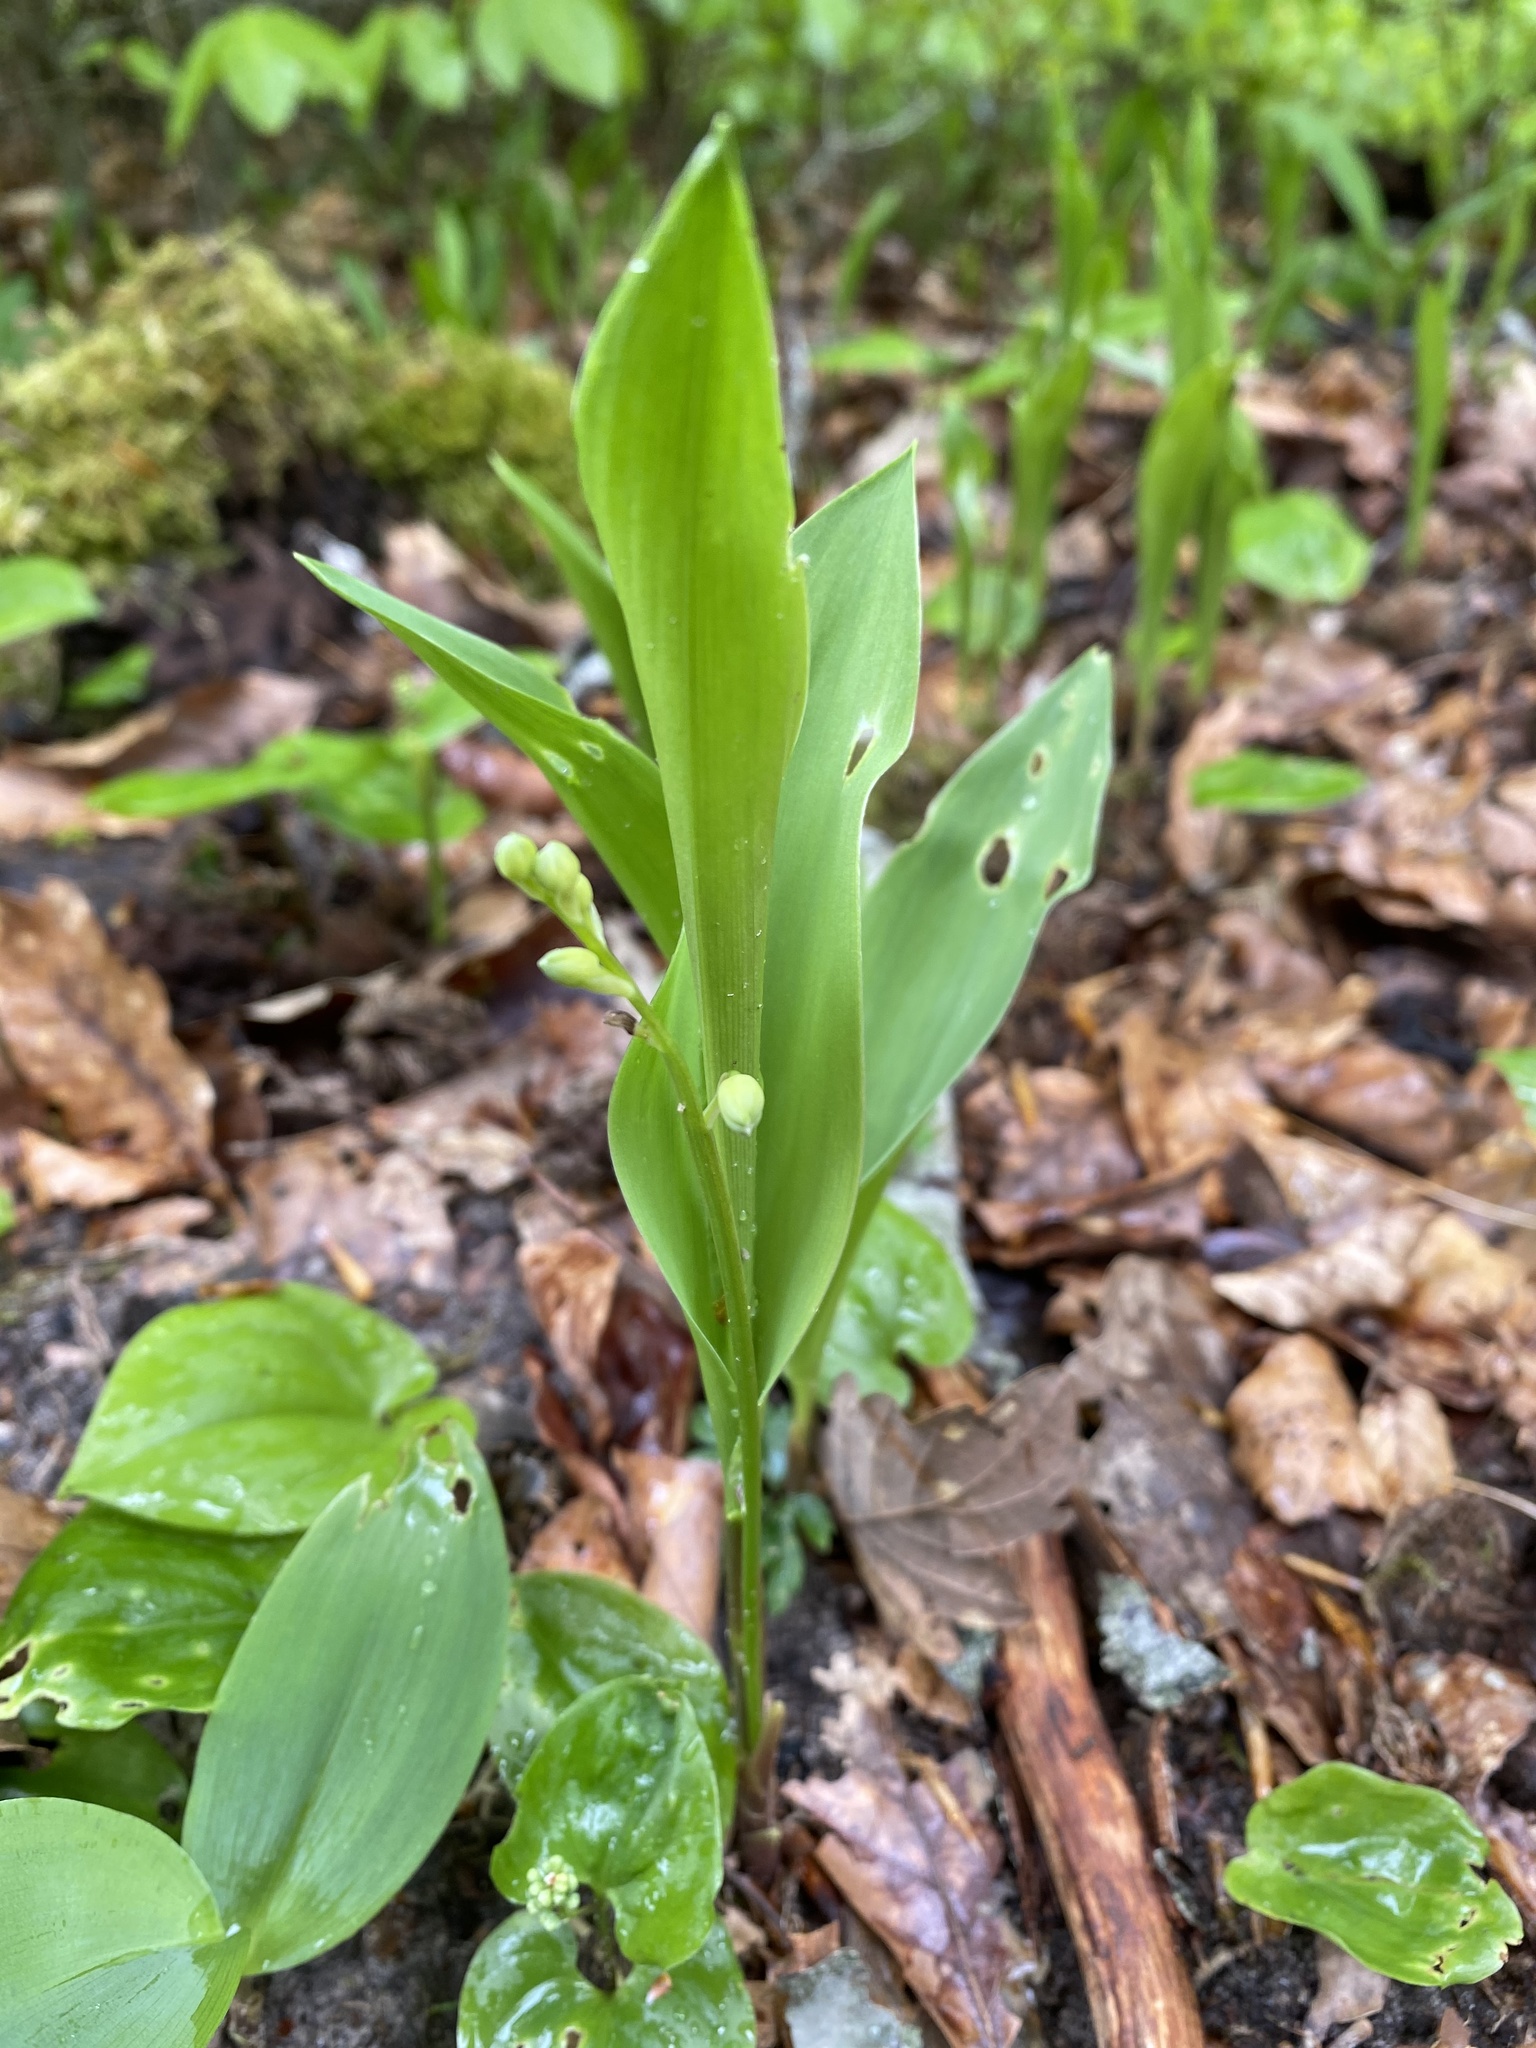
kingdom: Plantae
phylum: Tracheophyta
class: Liliopsida
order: Asparagales
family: Asparagaceae
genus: Convallaria
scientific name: Convallaria majalis
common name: Lily-of-the-valley
